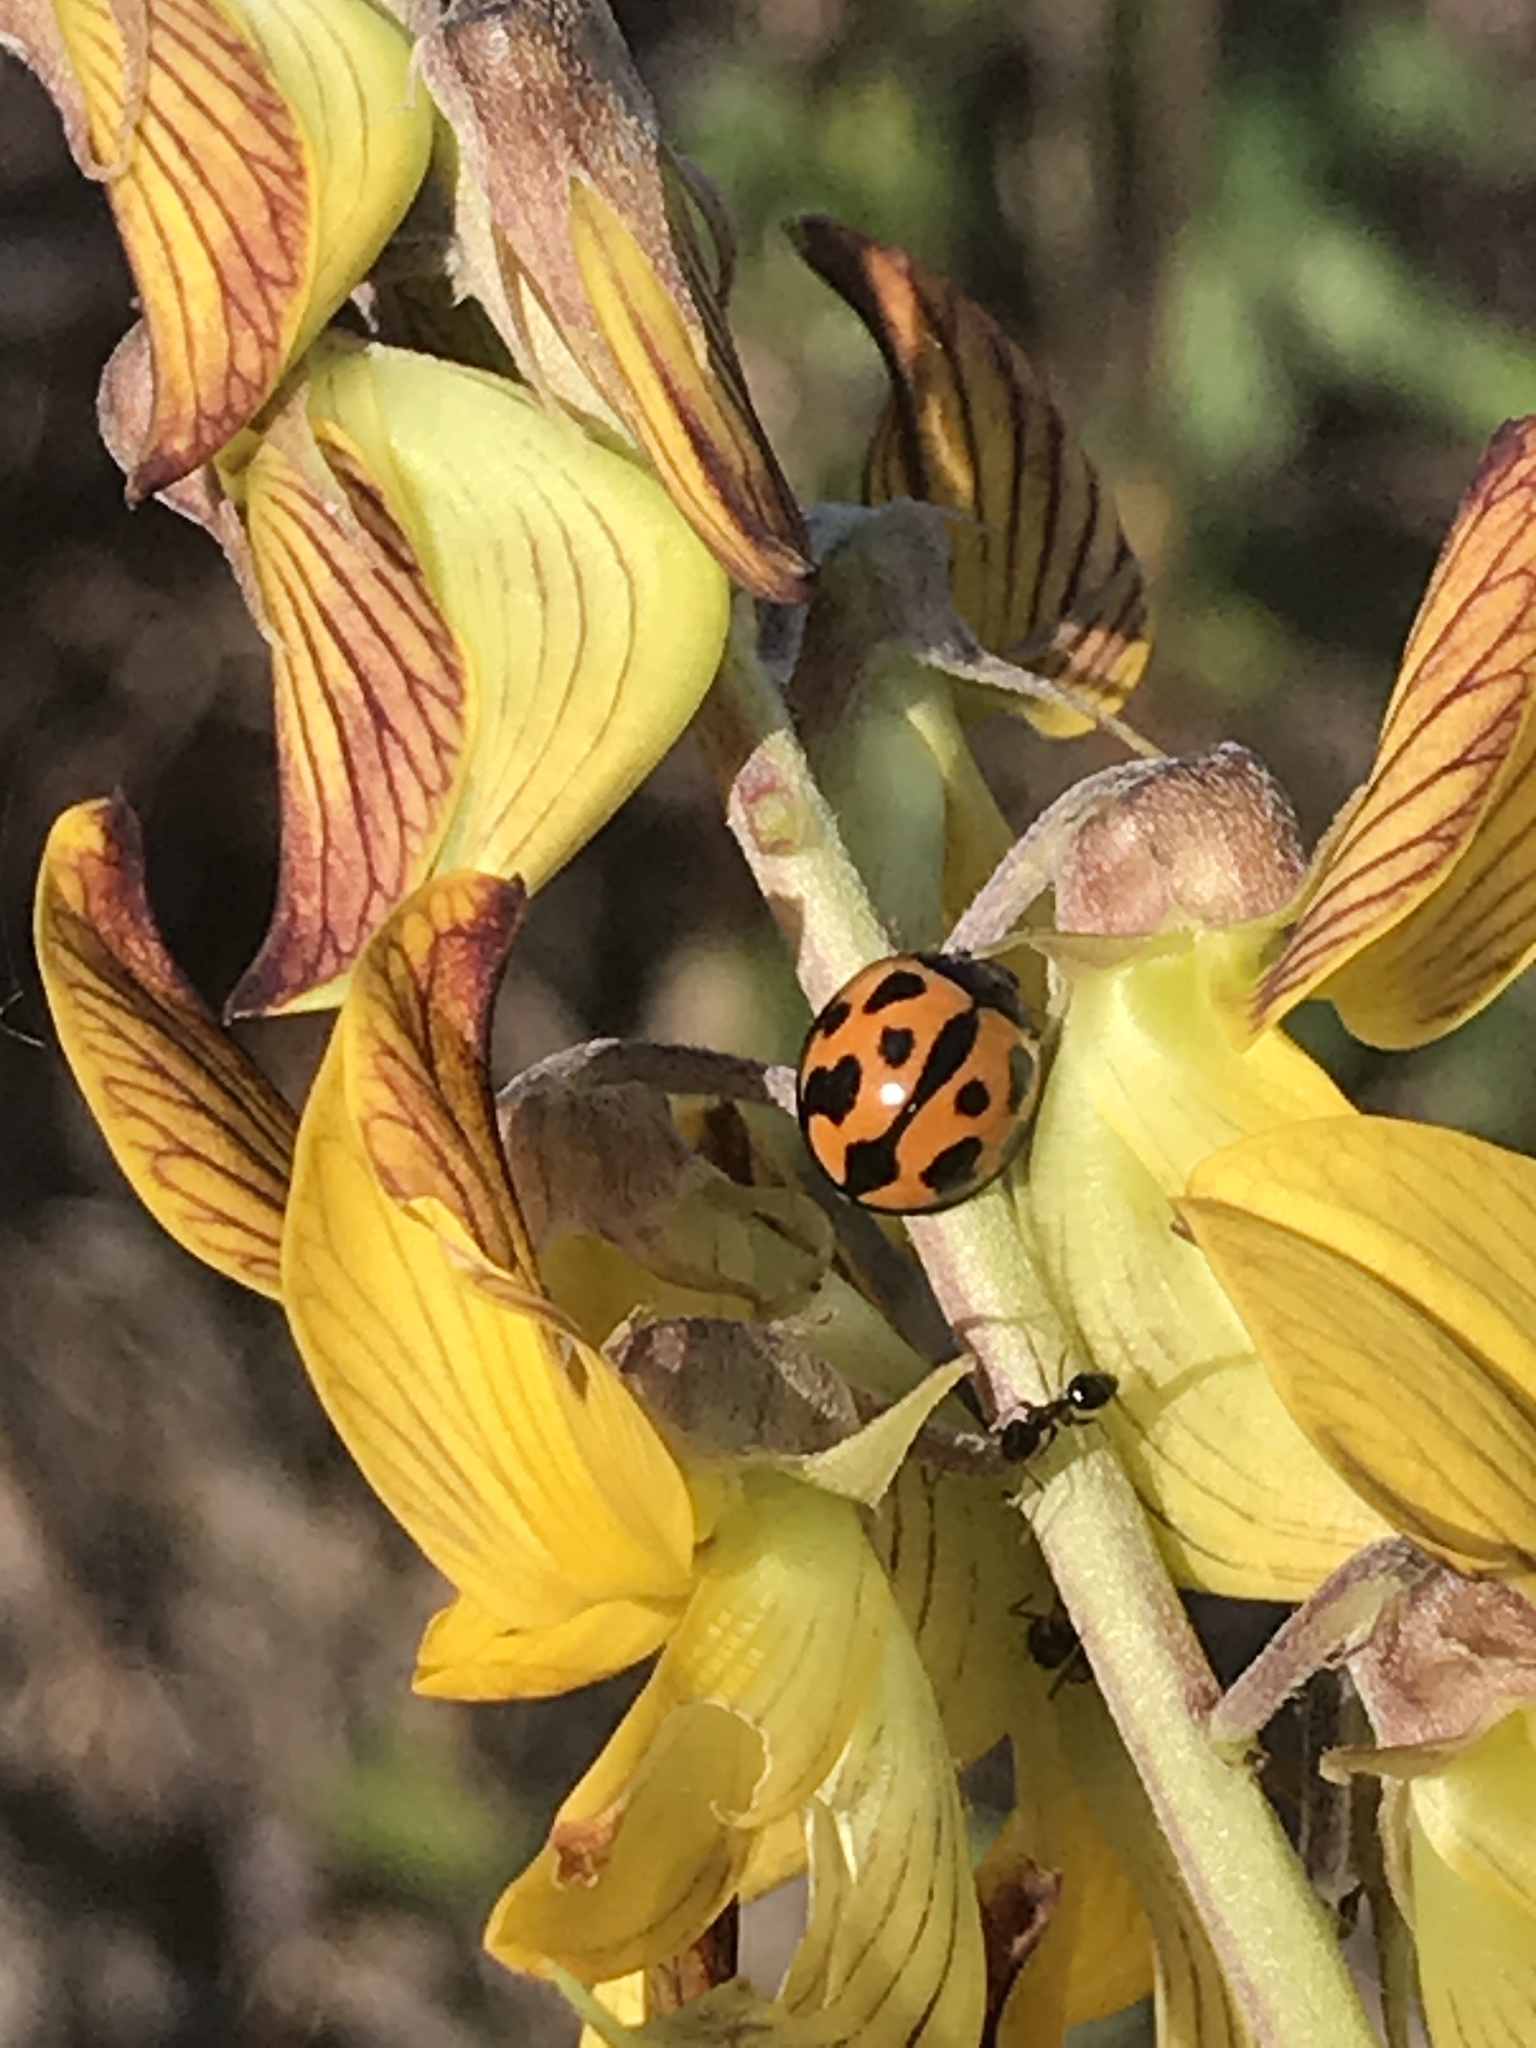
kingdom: Animalia
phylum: Arthropoda
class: Insecta
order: Coleoptera
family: Coccinellidae
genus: Coelophora
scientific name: Coelophora inaequalis
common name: Common australian lady beetle
